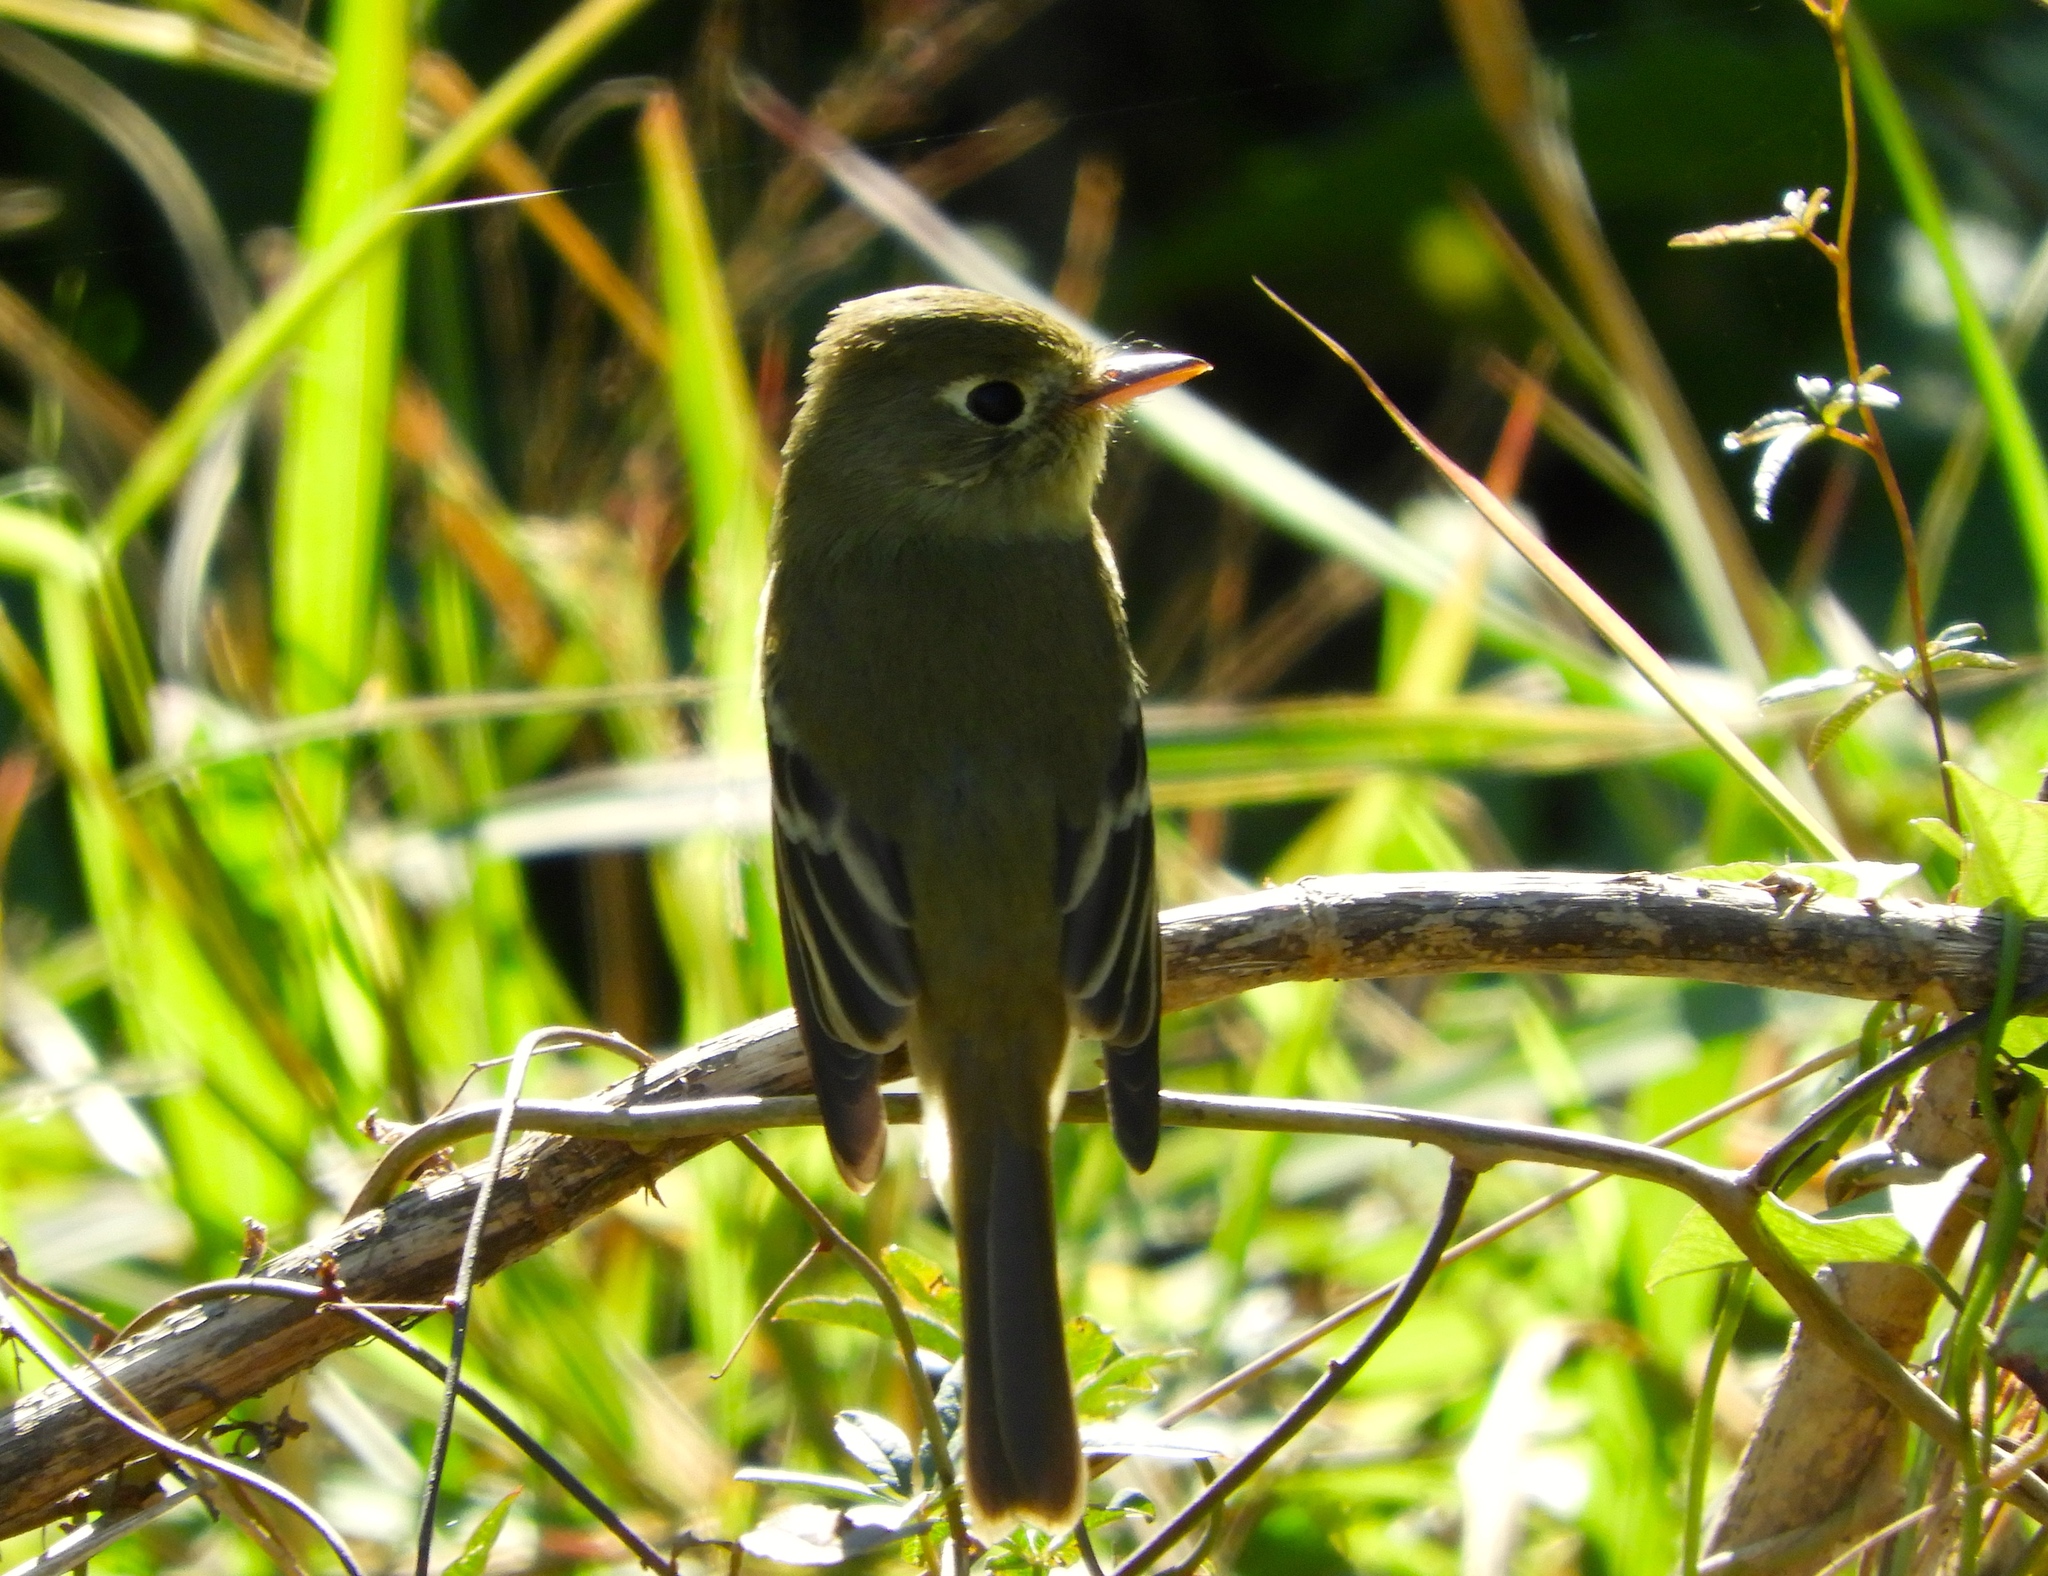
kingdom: Animalia
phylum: Chordata
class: Aves
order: Passeriformes
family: Tyrannidae
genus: Empidonax
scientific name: Empidonax
